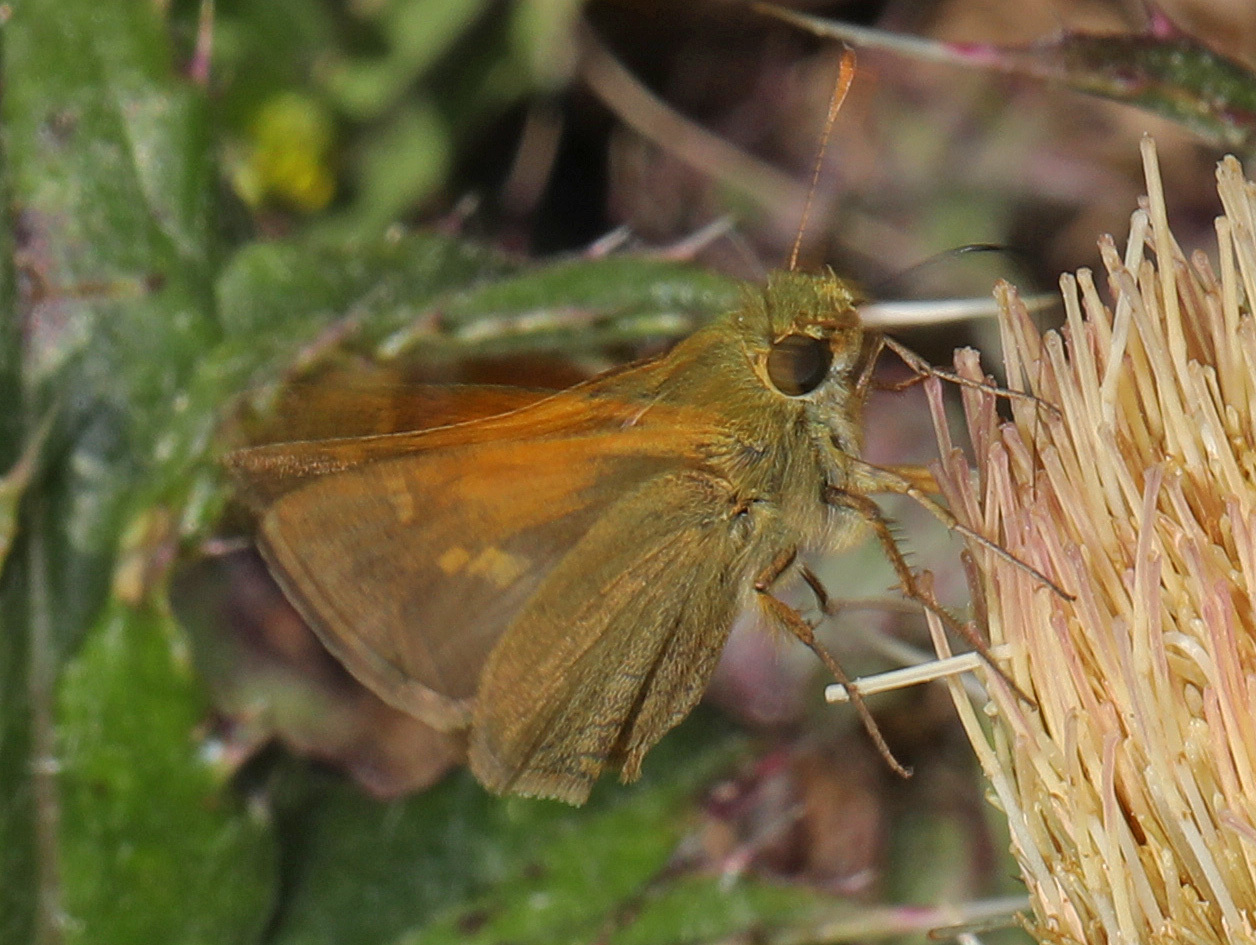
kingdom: Animalia
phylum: Arthropoda
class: Insecta
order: Lepidoptera
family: Hesperiidae
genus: Polites
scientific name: Polites themistocles
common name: Tawny-edged skipper
